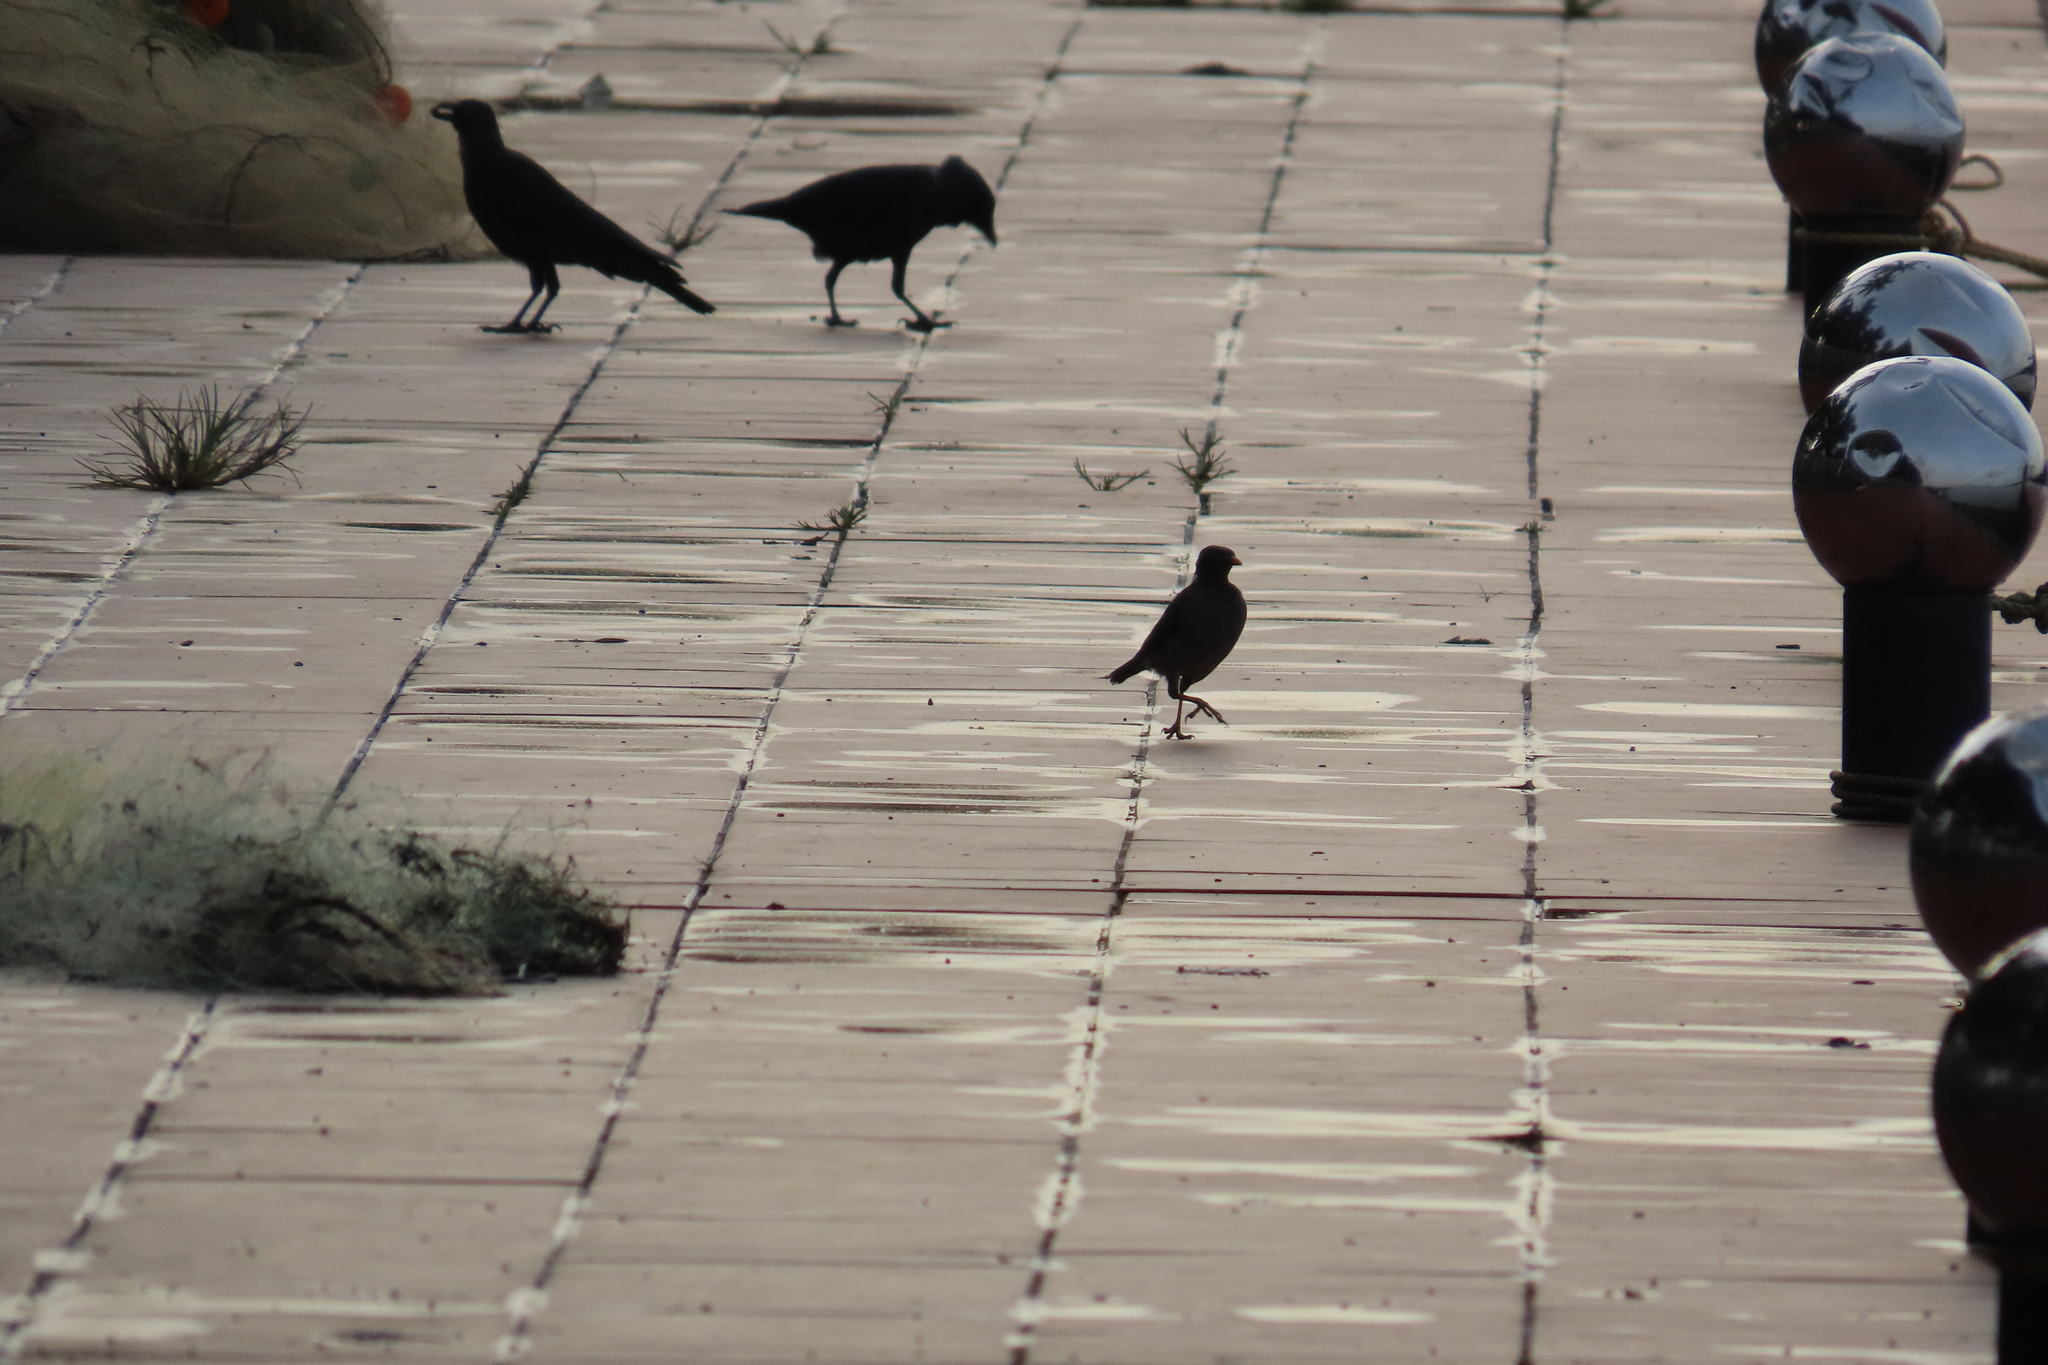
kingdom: Animalia
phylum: Chordata
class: Aves
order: Passeriformes
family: Sturnidae
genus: Acridotheres
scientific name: Acridotheres tristis
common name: Common myna
